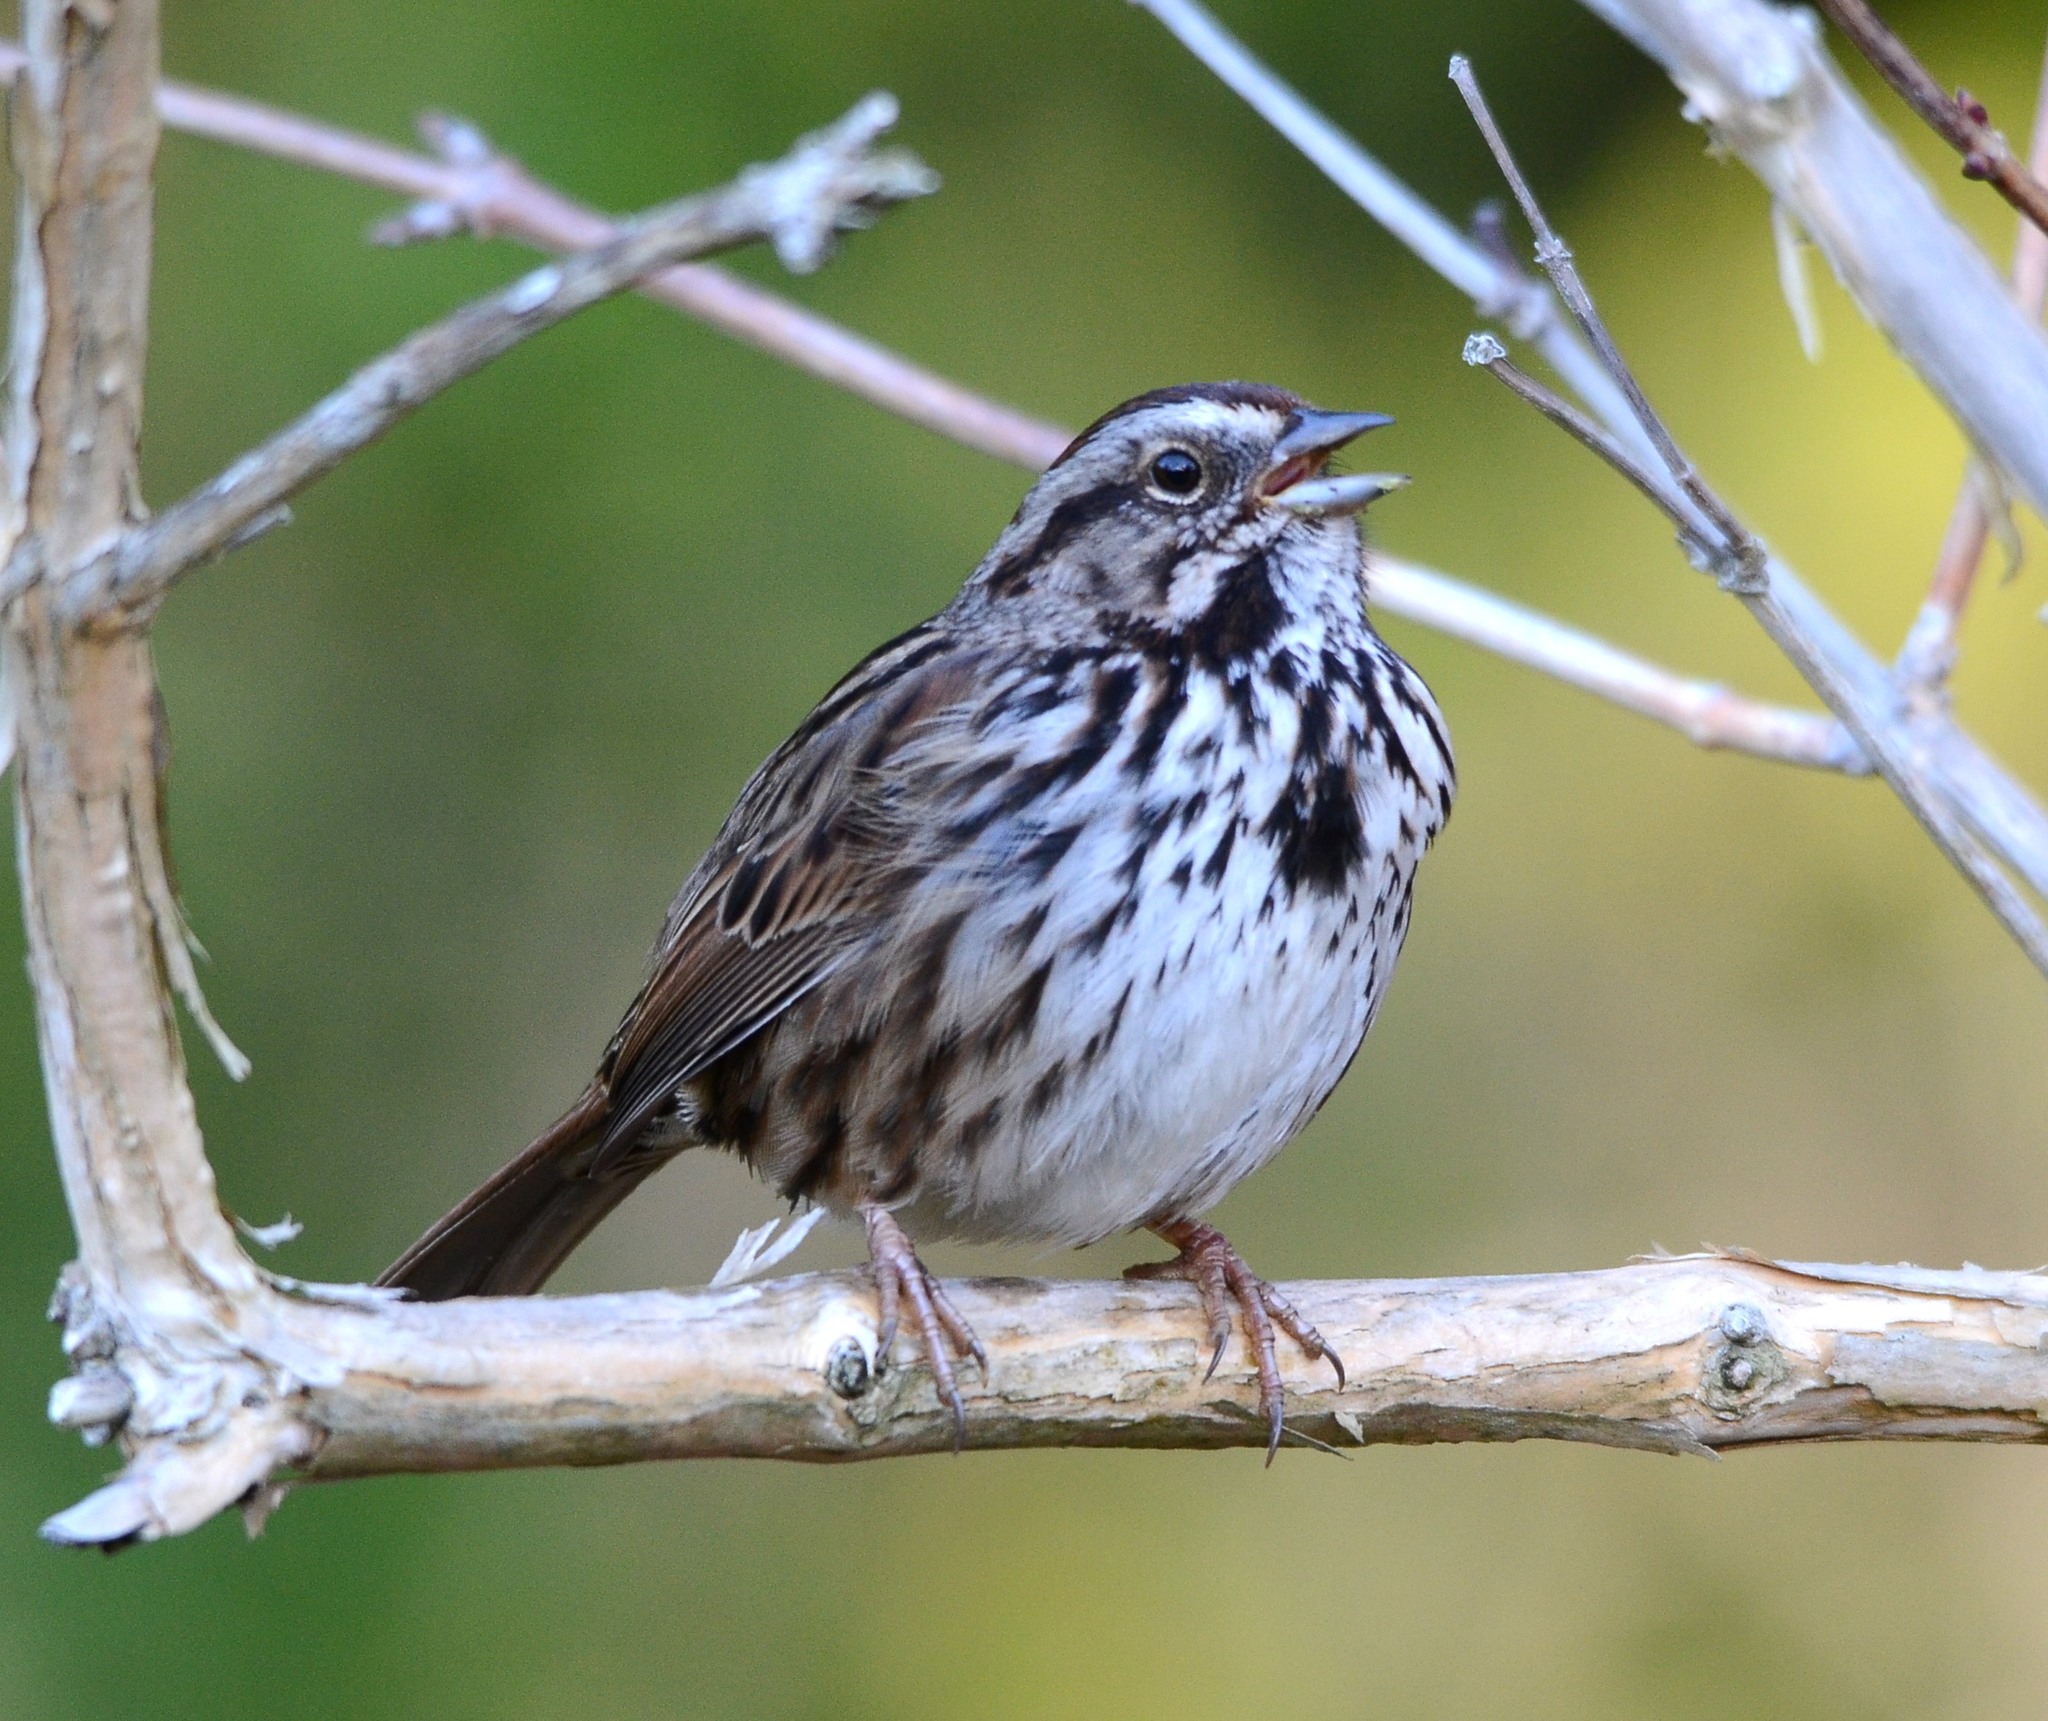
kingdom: Animalia
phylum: Chordata
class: Aves
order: Passeriformes
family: Passerellidae
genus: Melospiza
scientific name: Melospiza melodia
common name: Song sparrow
